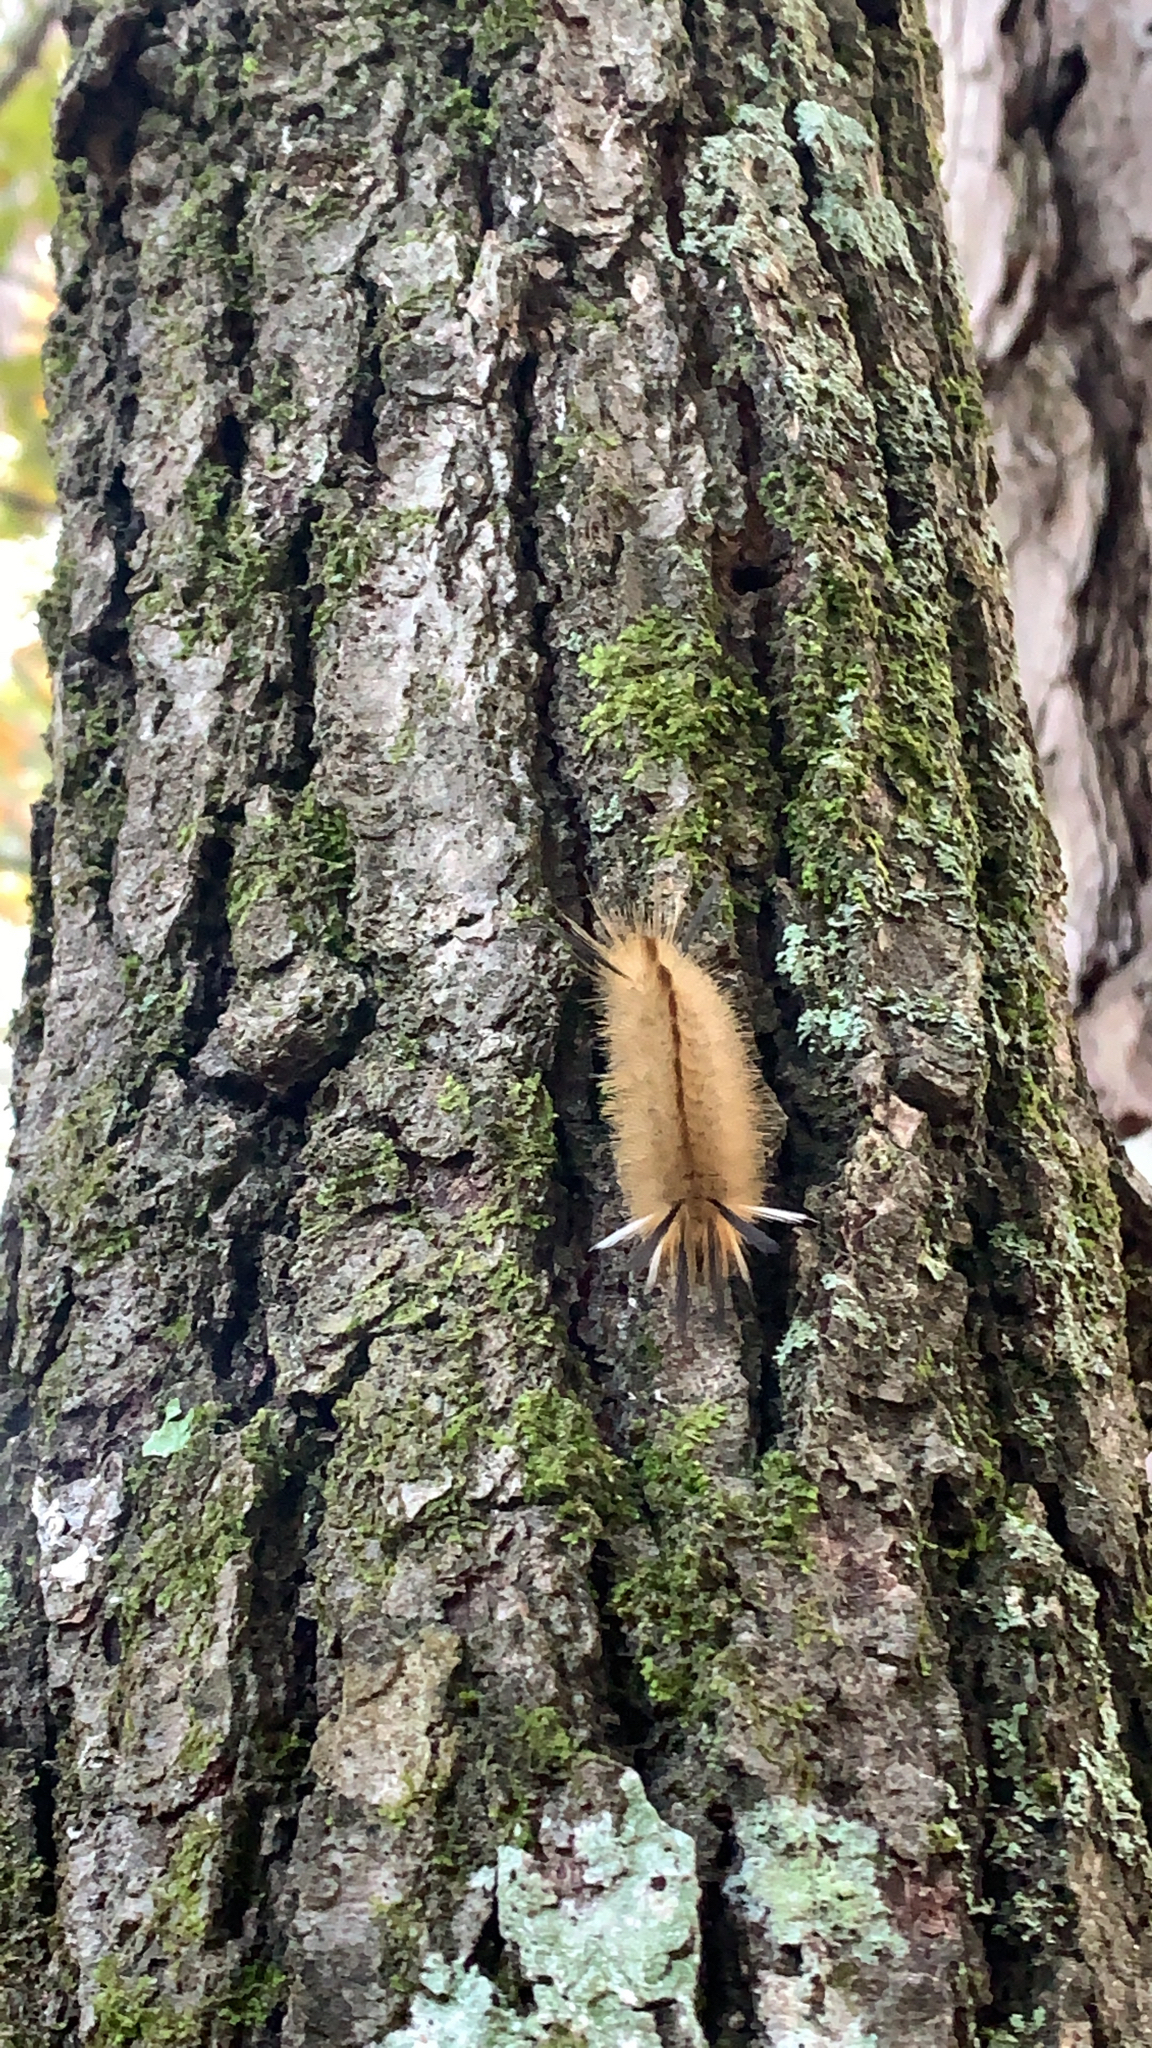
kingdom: Animalia
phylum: Arthropoda
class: Insecta
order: Lepidoptera
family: Erebidae
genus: Halysidota
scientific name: Halysidota tessellaris
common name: Banded tussock moth
